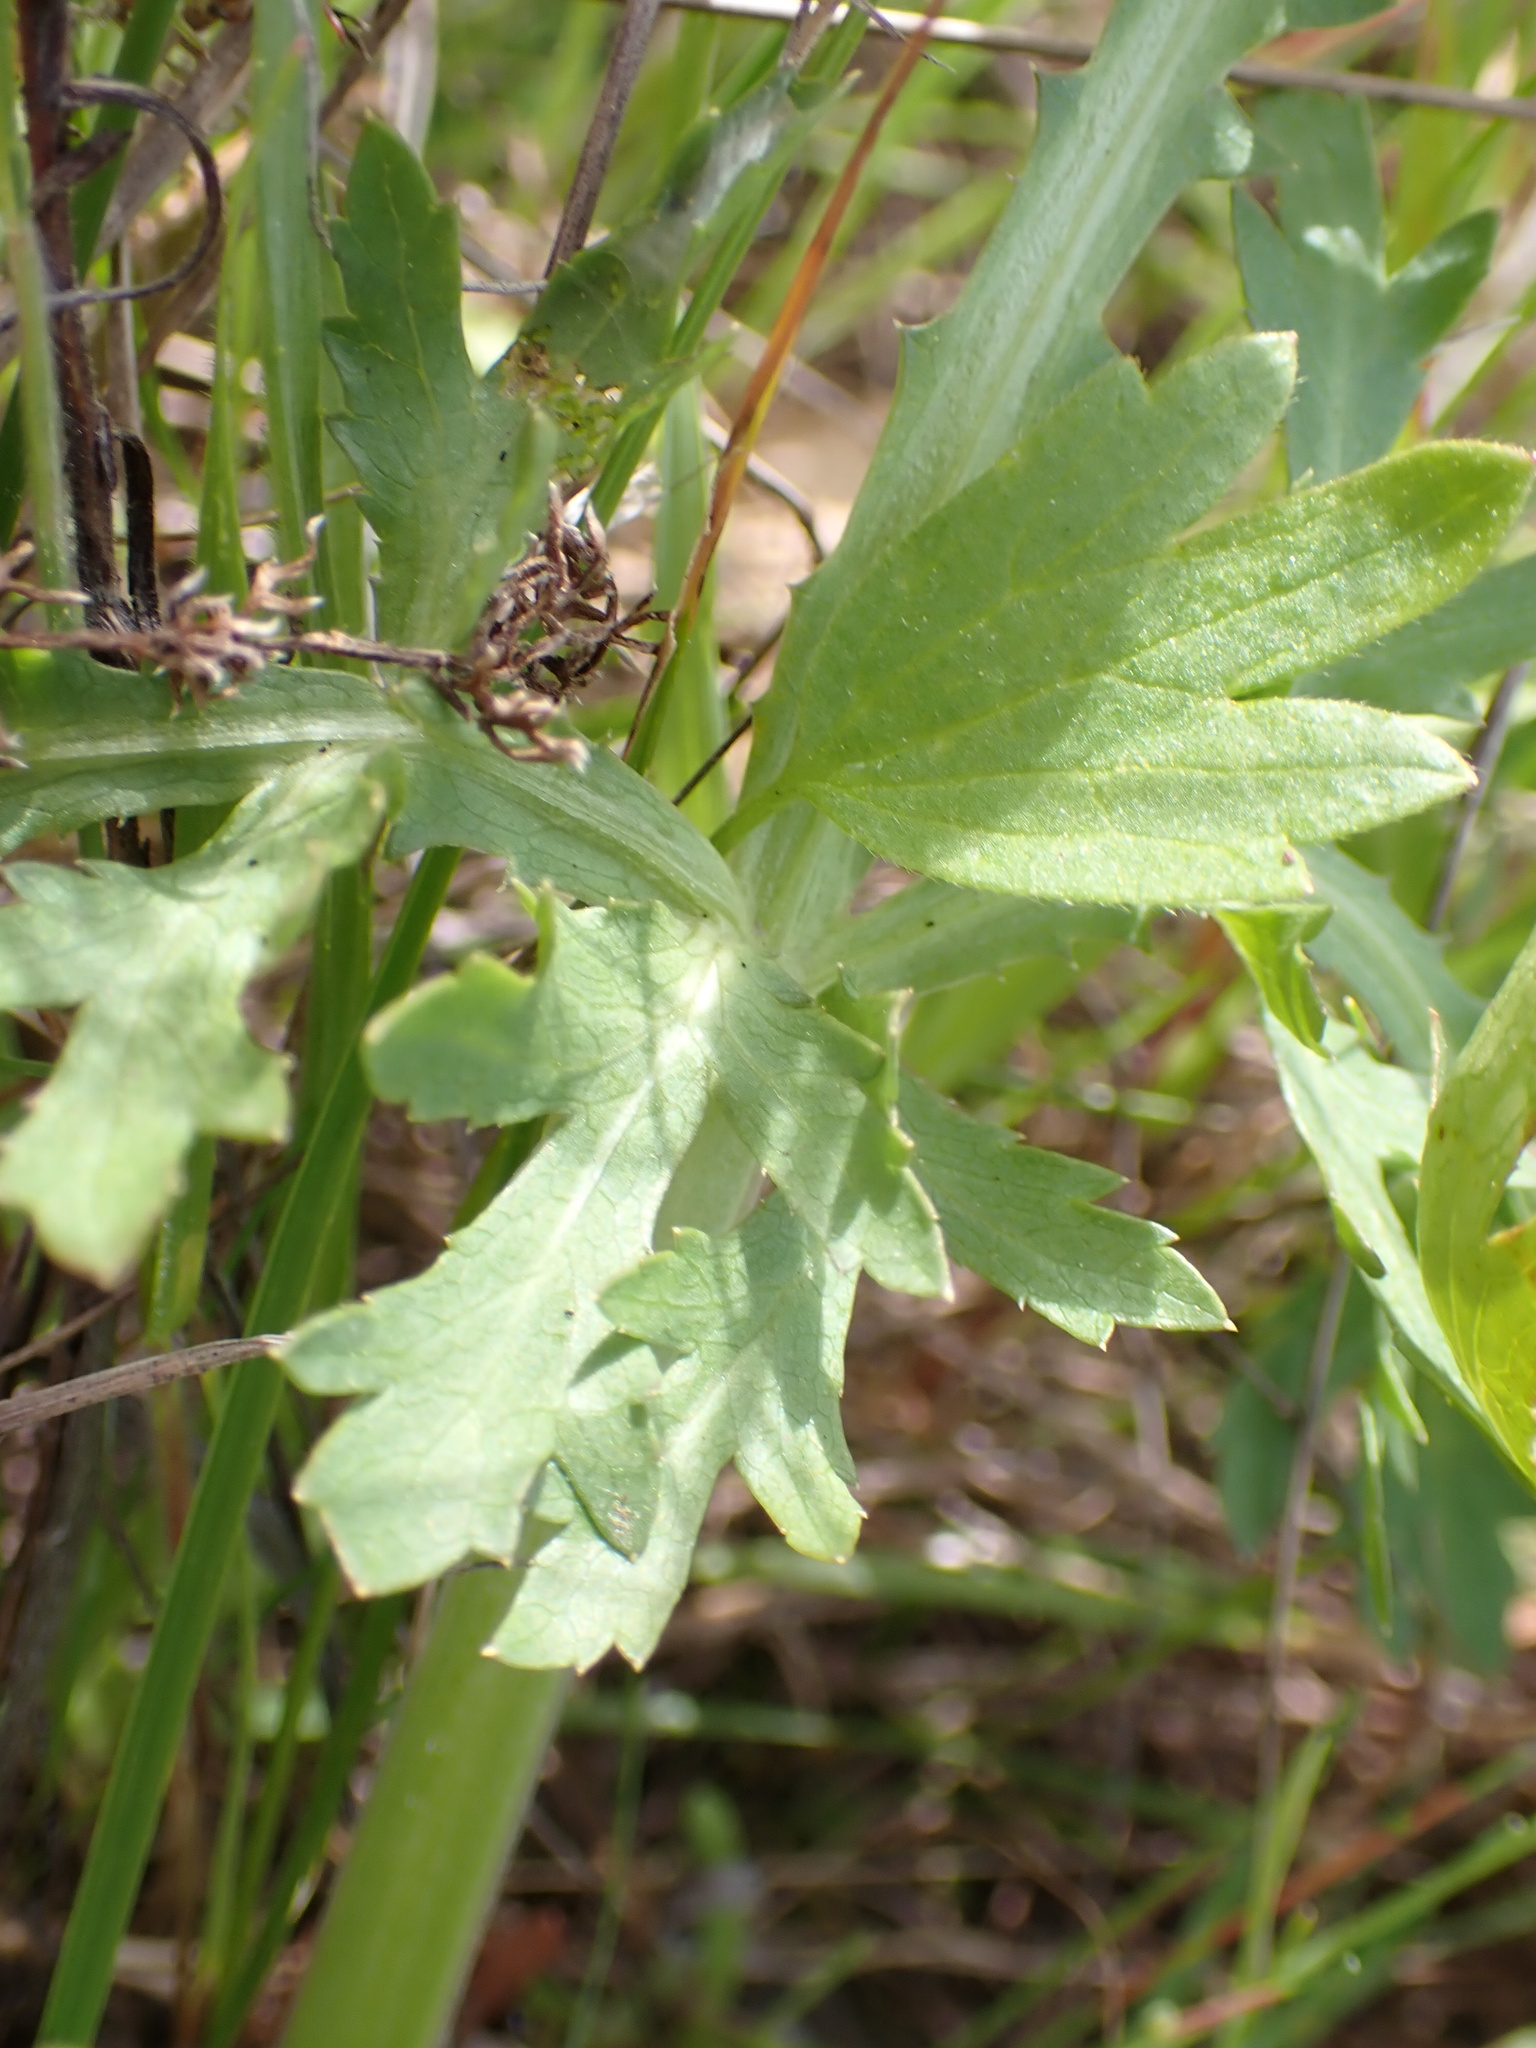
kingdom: Plantae
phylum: Tracheophyta
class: Magnoliopsida
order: Apiales
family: Apiaceae
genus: Sanicula
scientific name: Sanicula bipinnatifida
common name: Shoe-buttons
